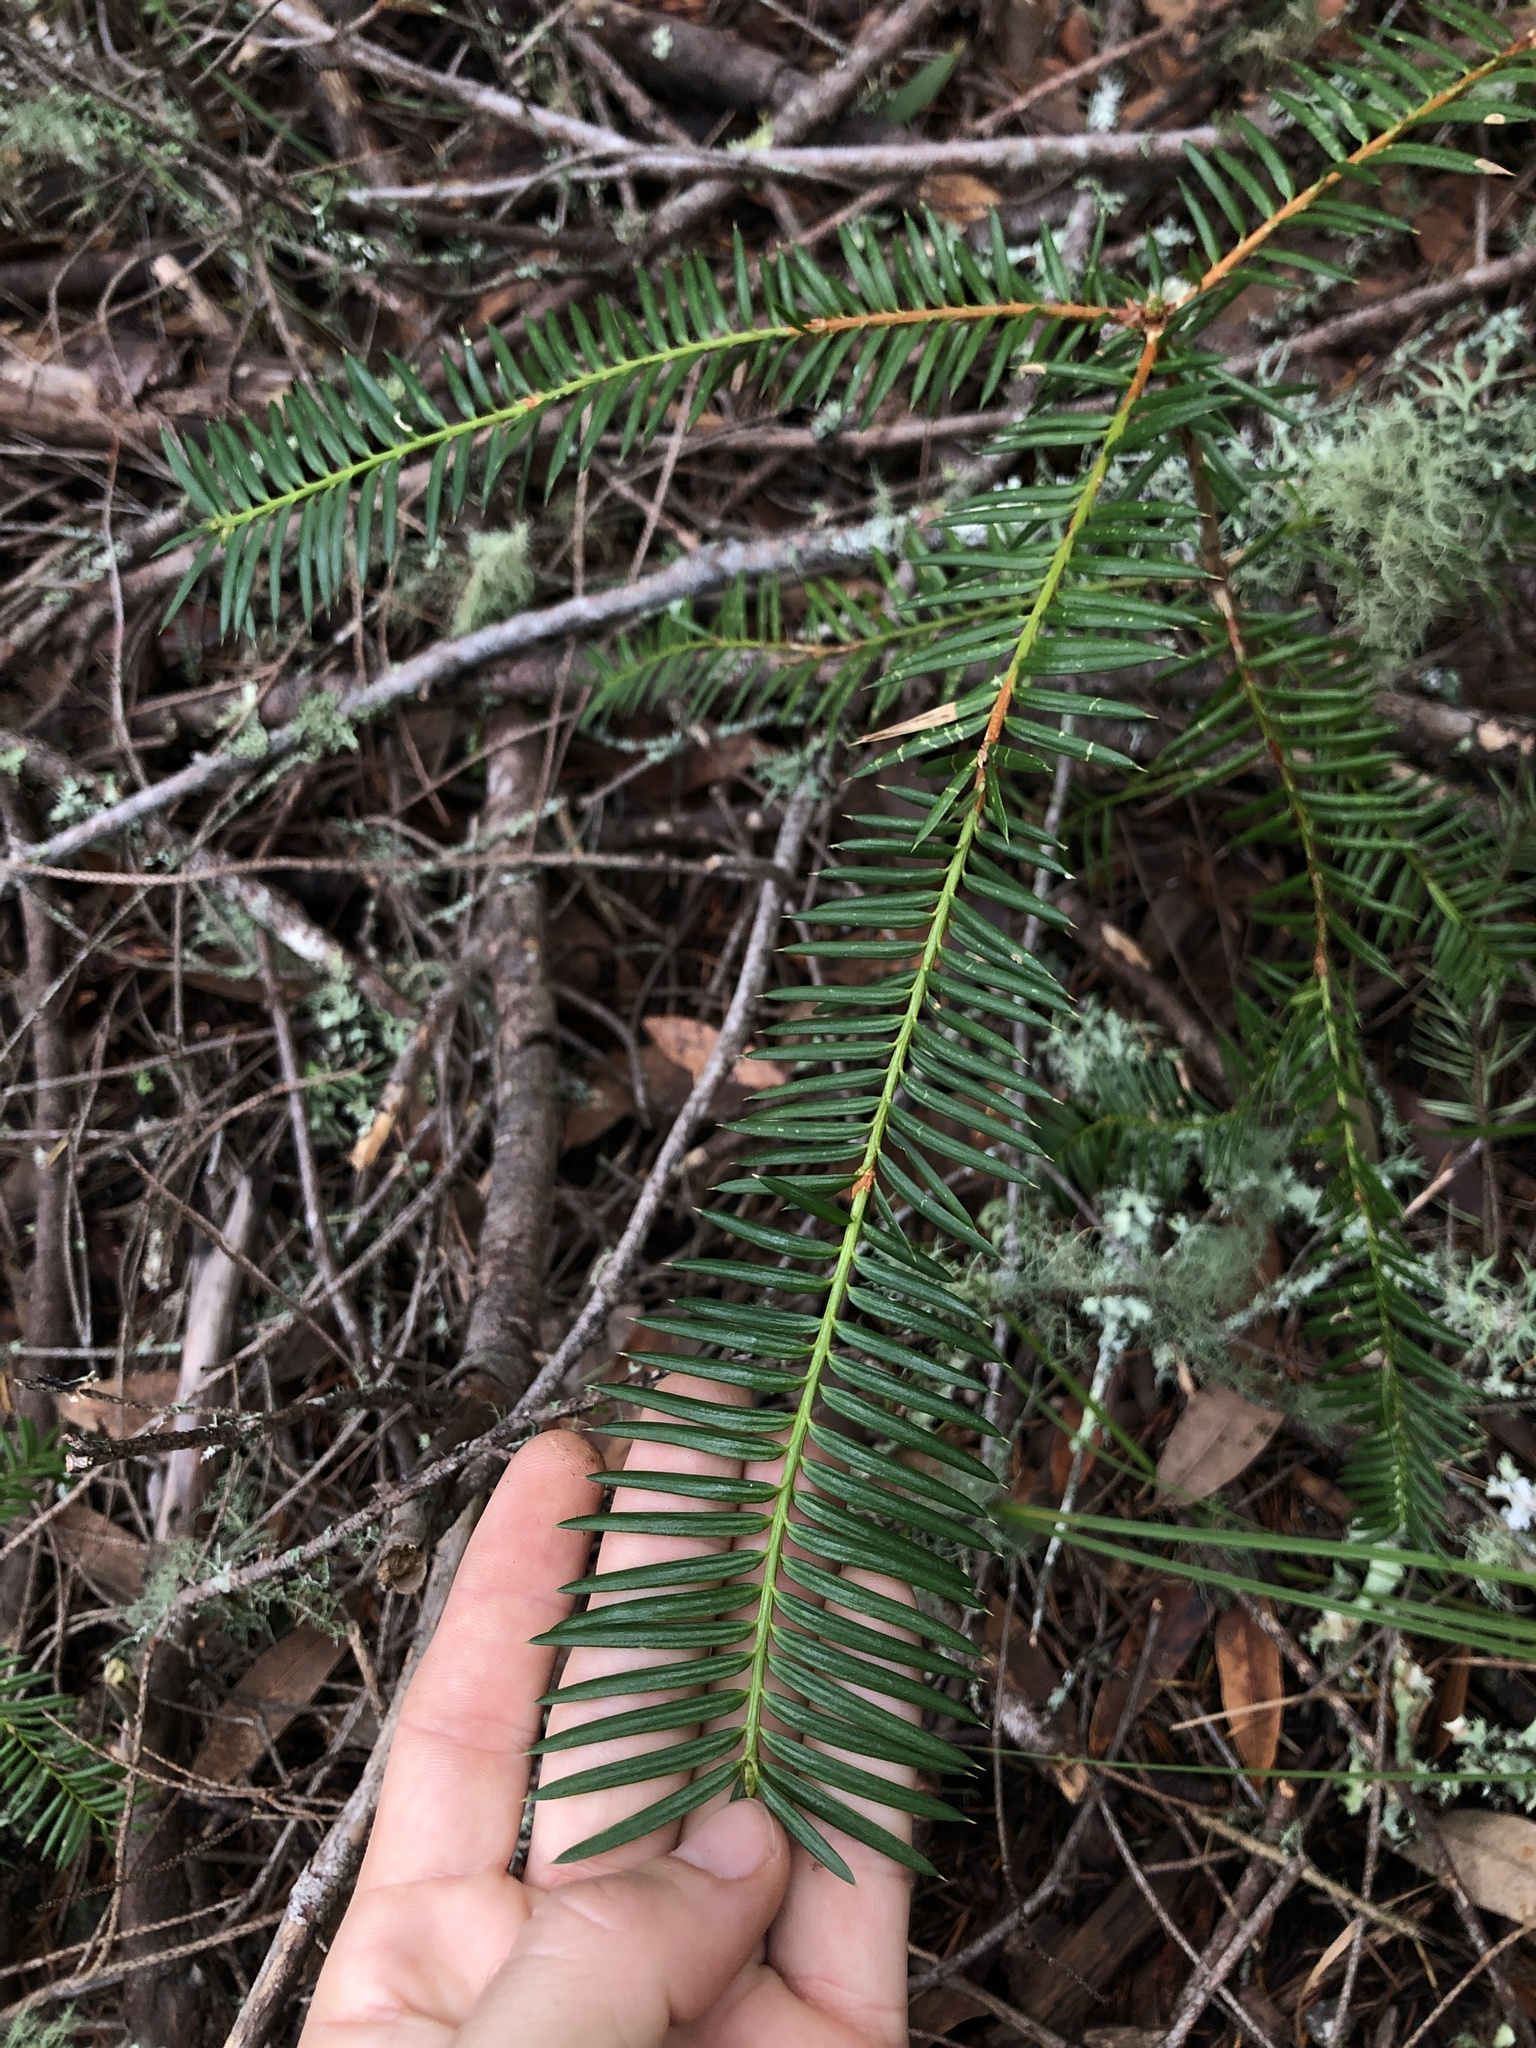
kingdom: Plantae
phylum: Tracheophyta
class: Pinopsida
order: Pinales
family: Taxaceae
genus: Torreya
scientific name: Torreya californica
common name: California torreya
